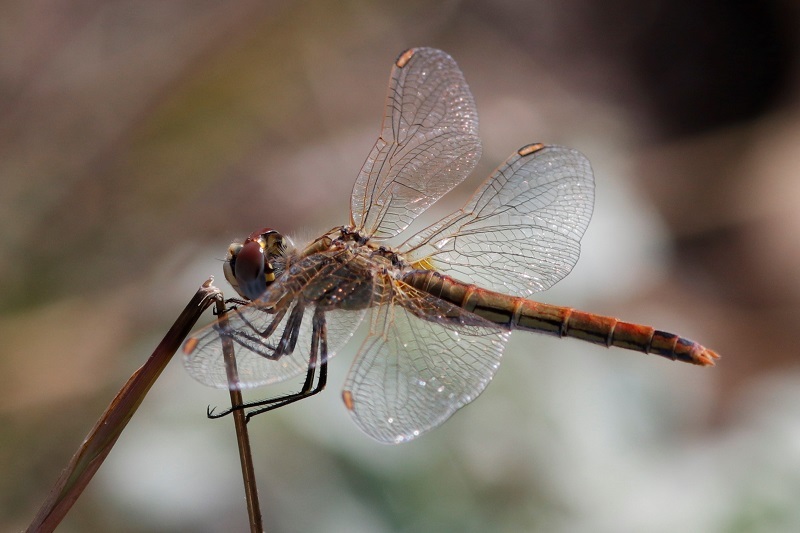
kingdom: Animalia
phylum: Arthropoda
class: Insecta
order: Odonata
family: Libellulidae
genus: Sympetrum
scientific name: Sympetrum fonscolombii
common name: Red-veined darter
